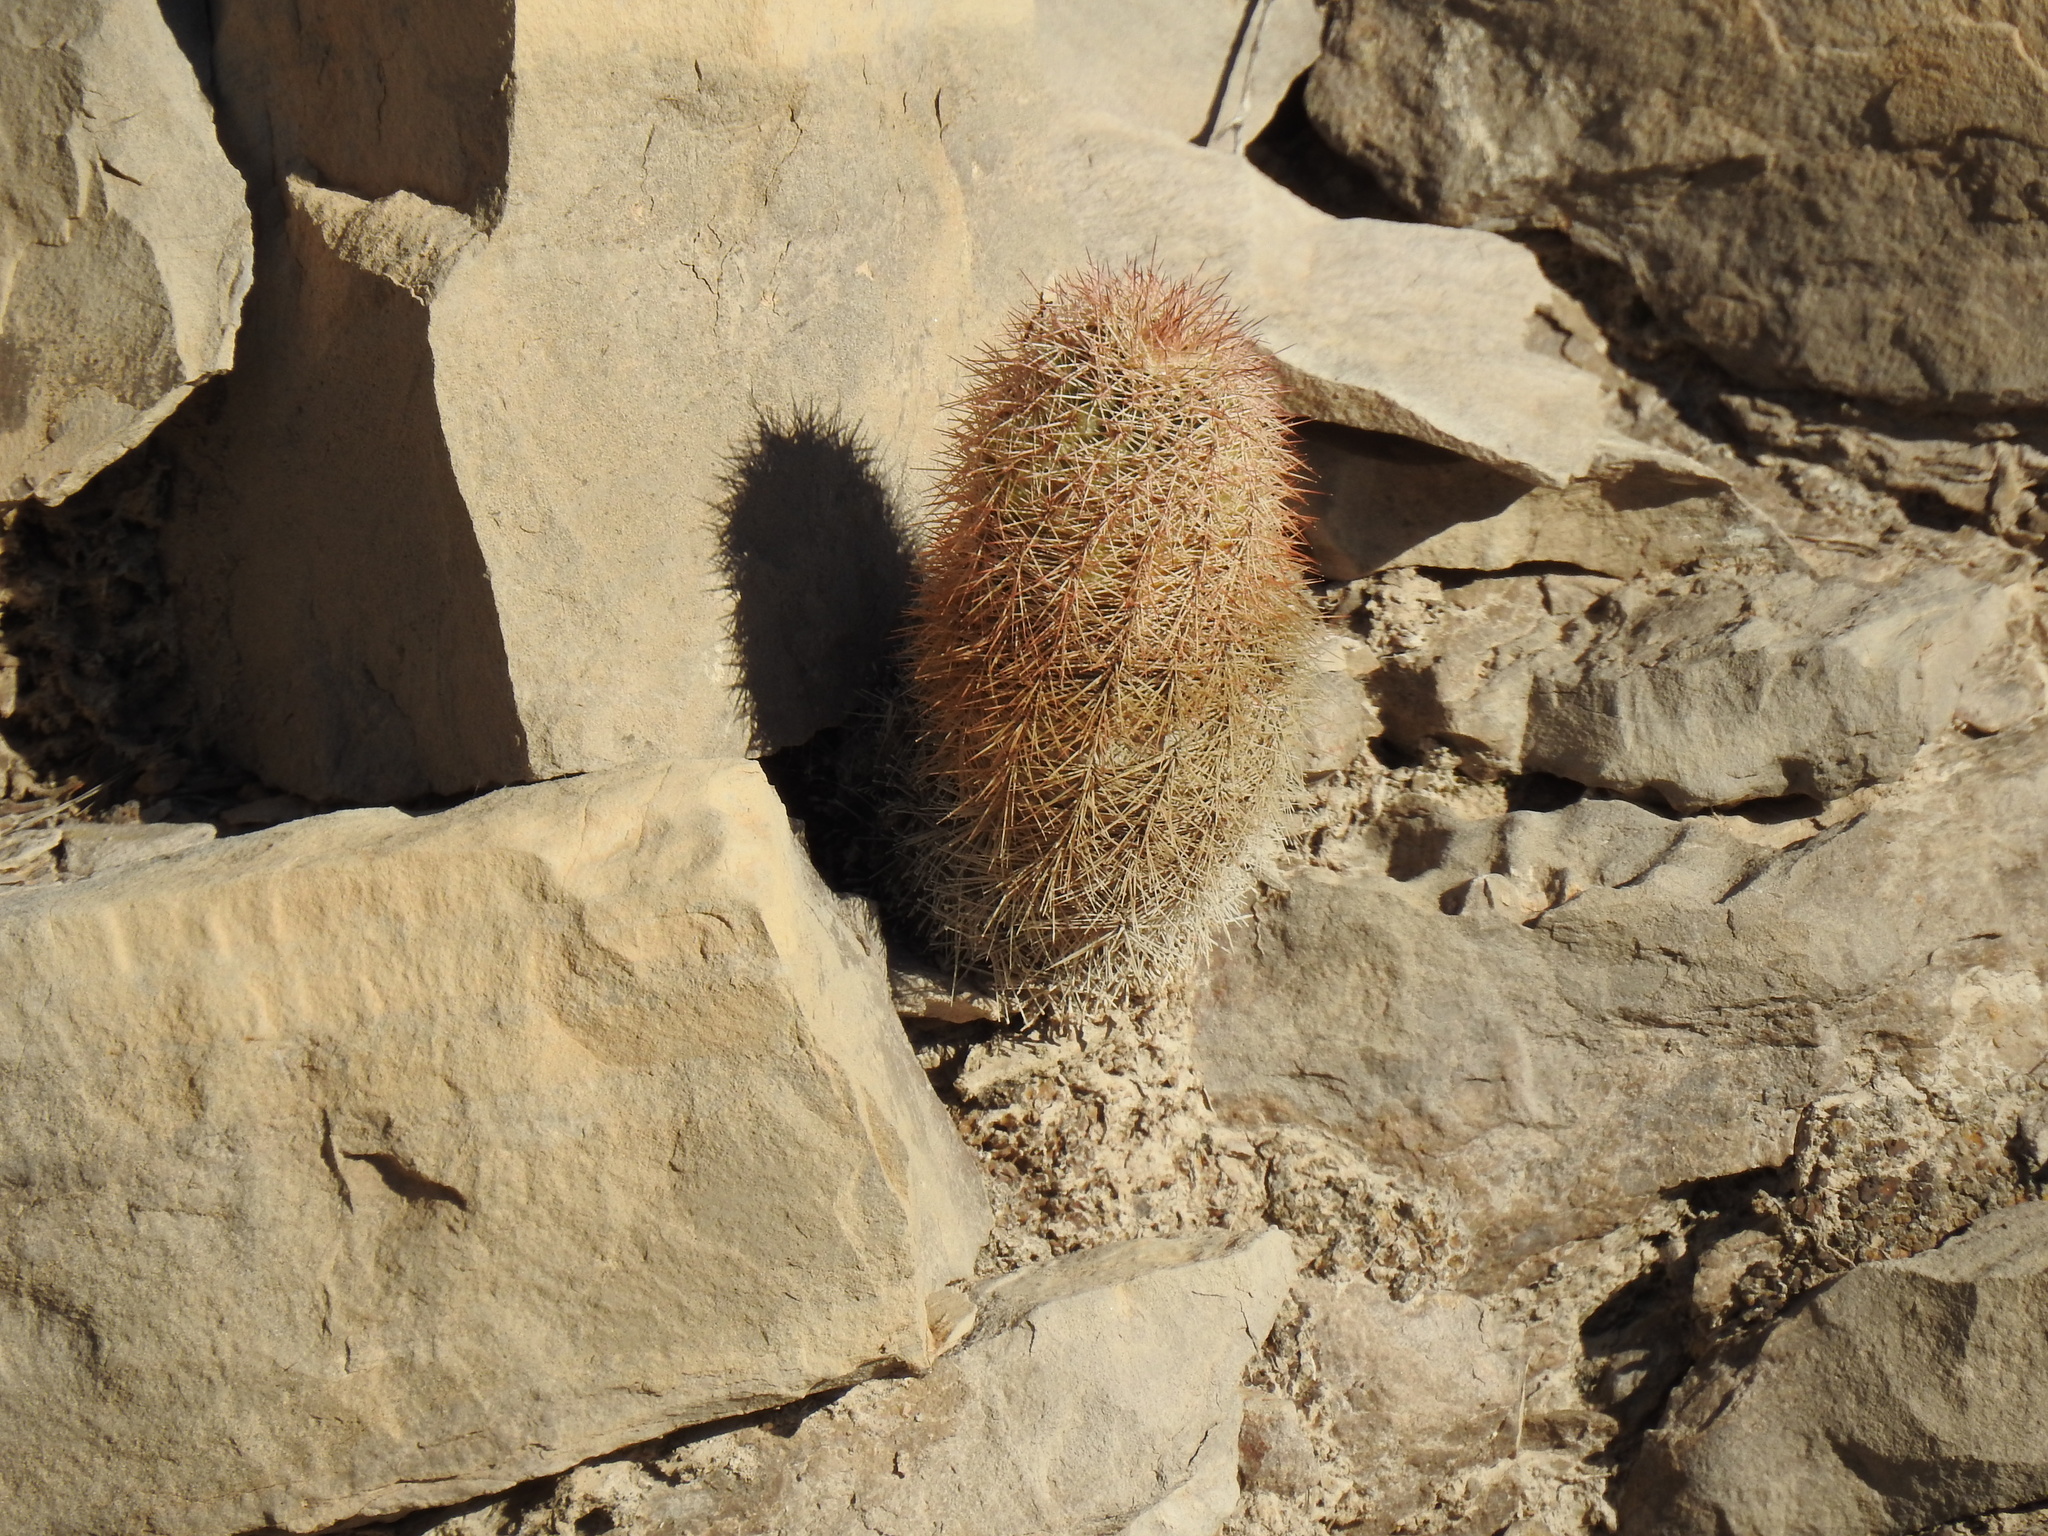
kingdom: Plantae
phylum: Tracheophyta
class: Magnoliopsida
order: Caryophyllales
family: Cactaceae
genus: Echinocereus
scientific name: Echinocereus dasyacanthus
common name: Spiny hedgehog cactus
